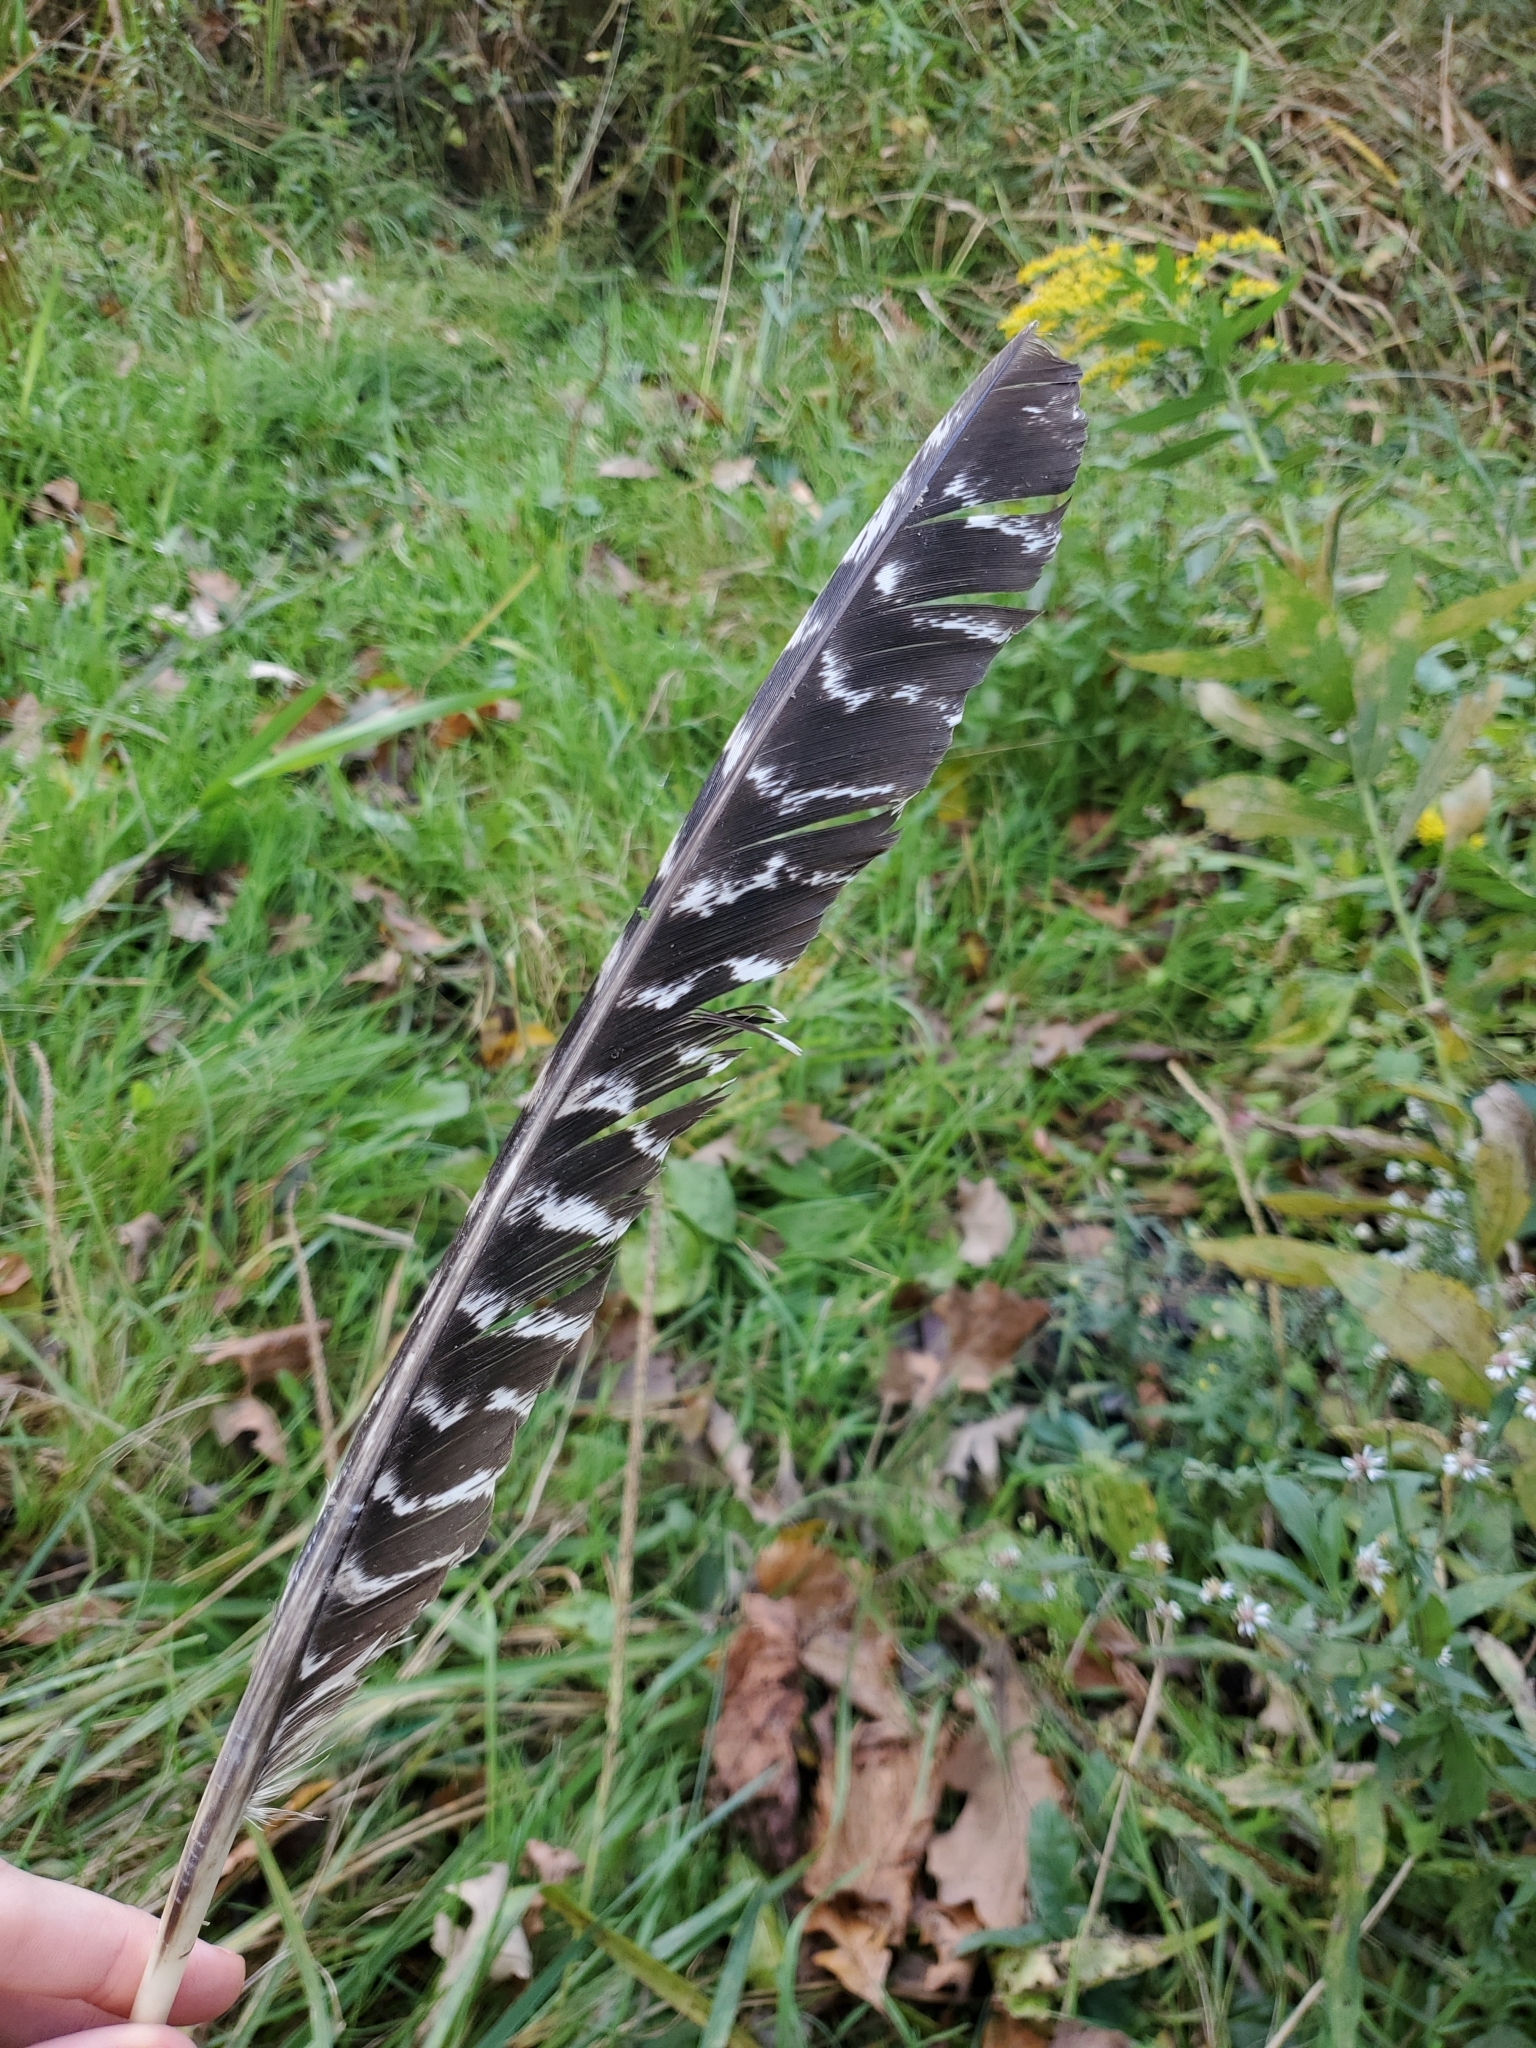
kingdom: Animalia
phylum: Chordata
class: Aves
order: Galliformes
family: Phasianidae
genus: Meleagris
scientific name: Meleagris gallopavo
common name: Wild turkey
